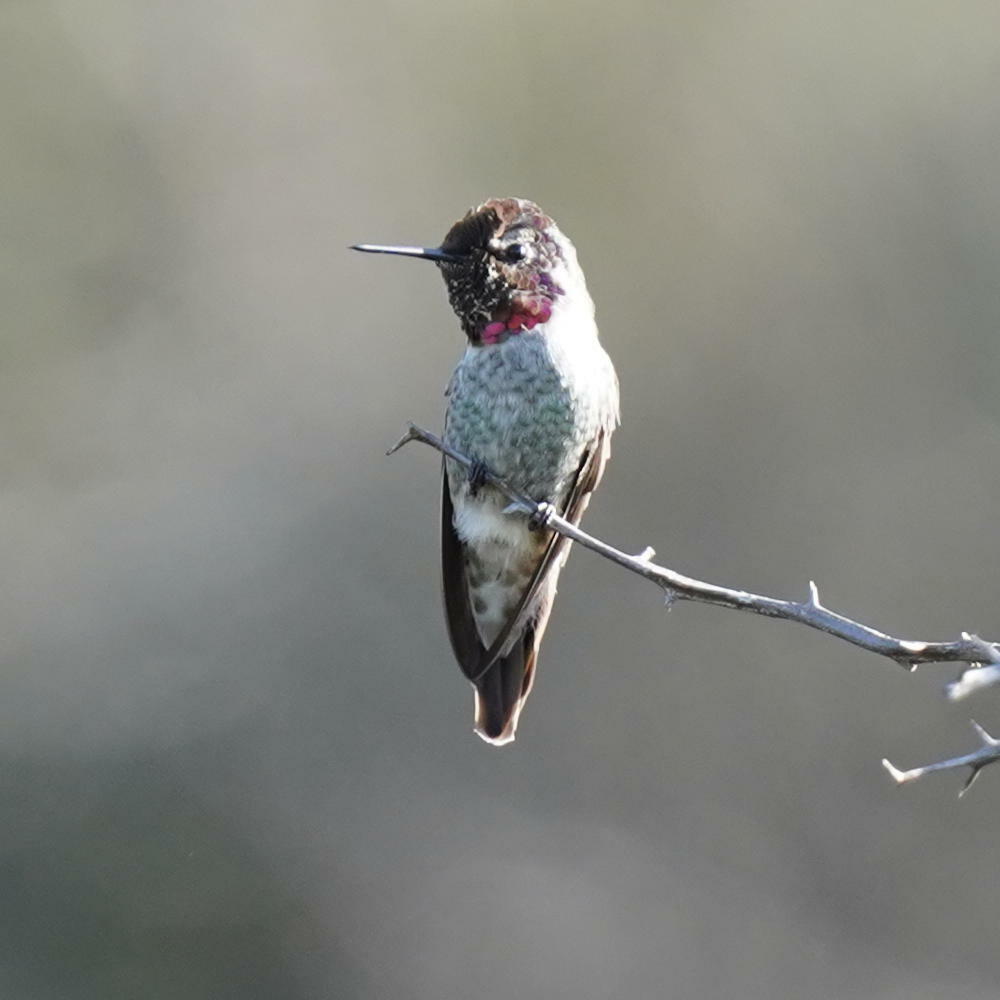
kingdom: Animalia
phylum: Chordata
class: Aves
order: Apodiformes
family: Trochilidae
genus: Calypte
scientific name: Calypte anna
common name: Anna's hummingbird
